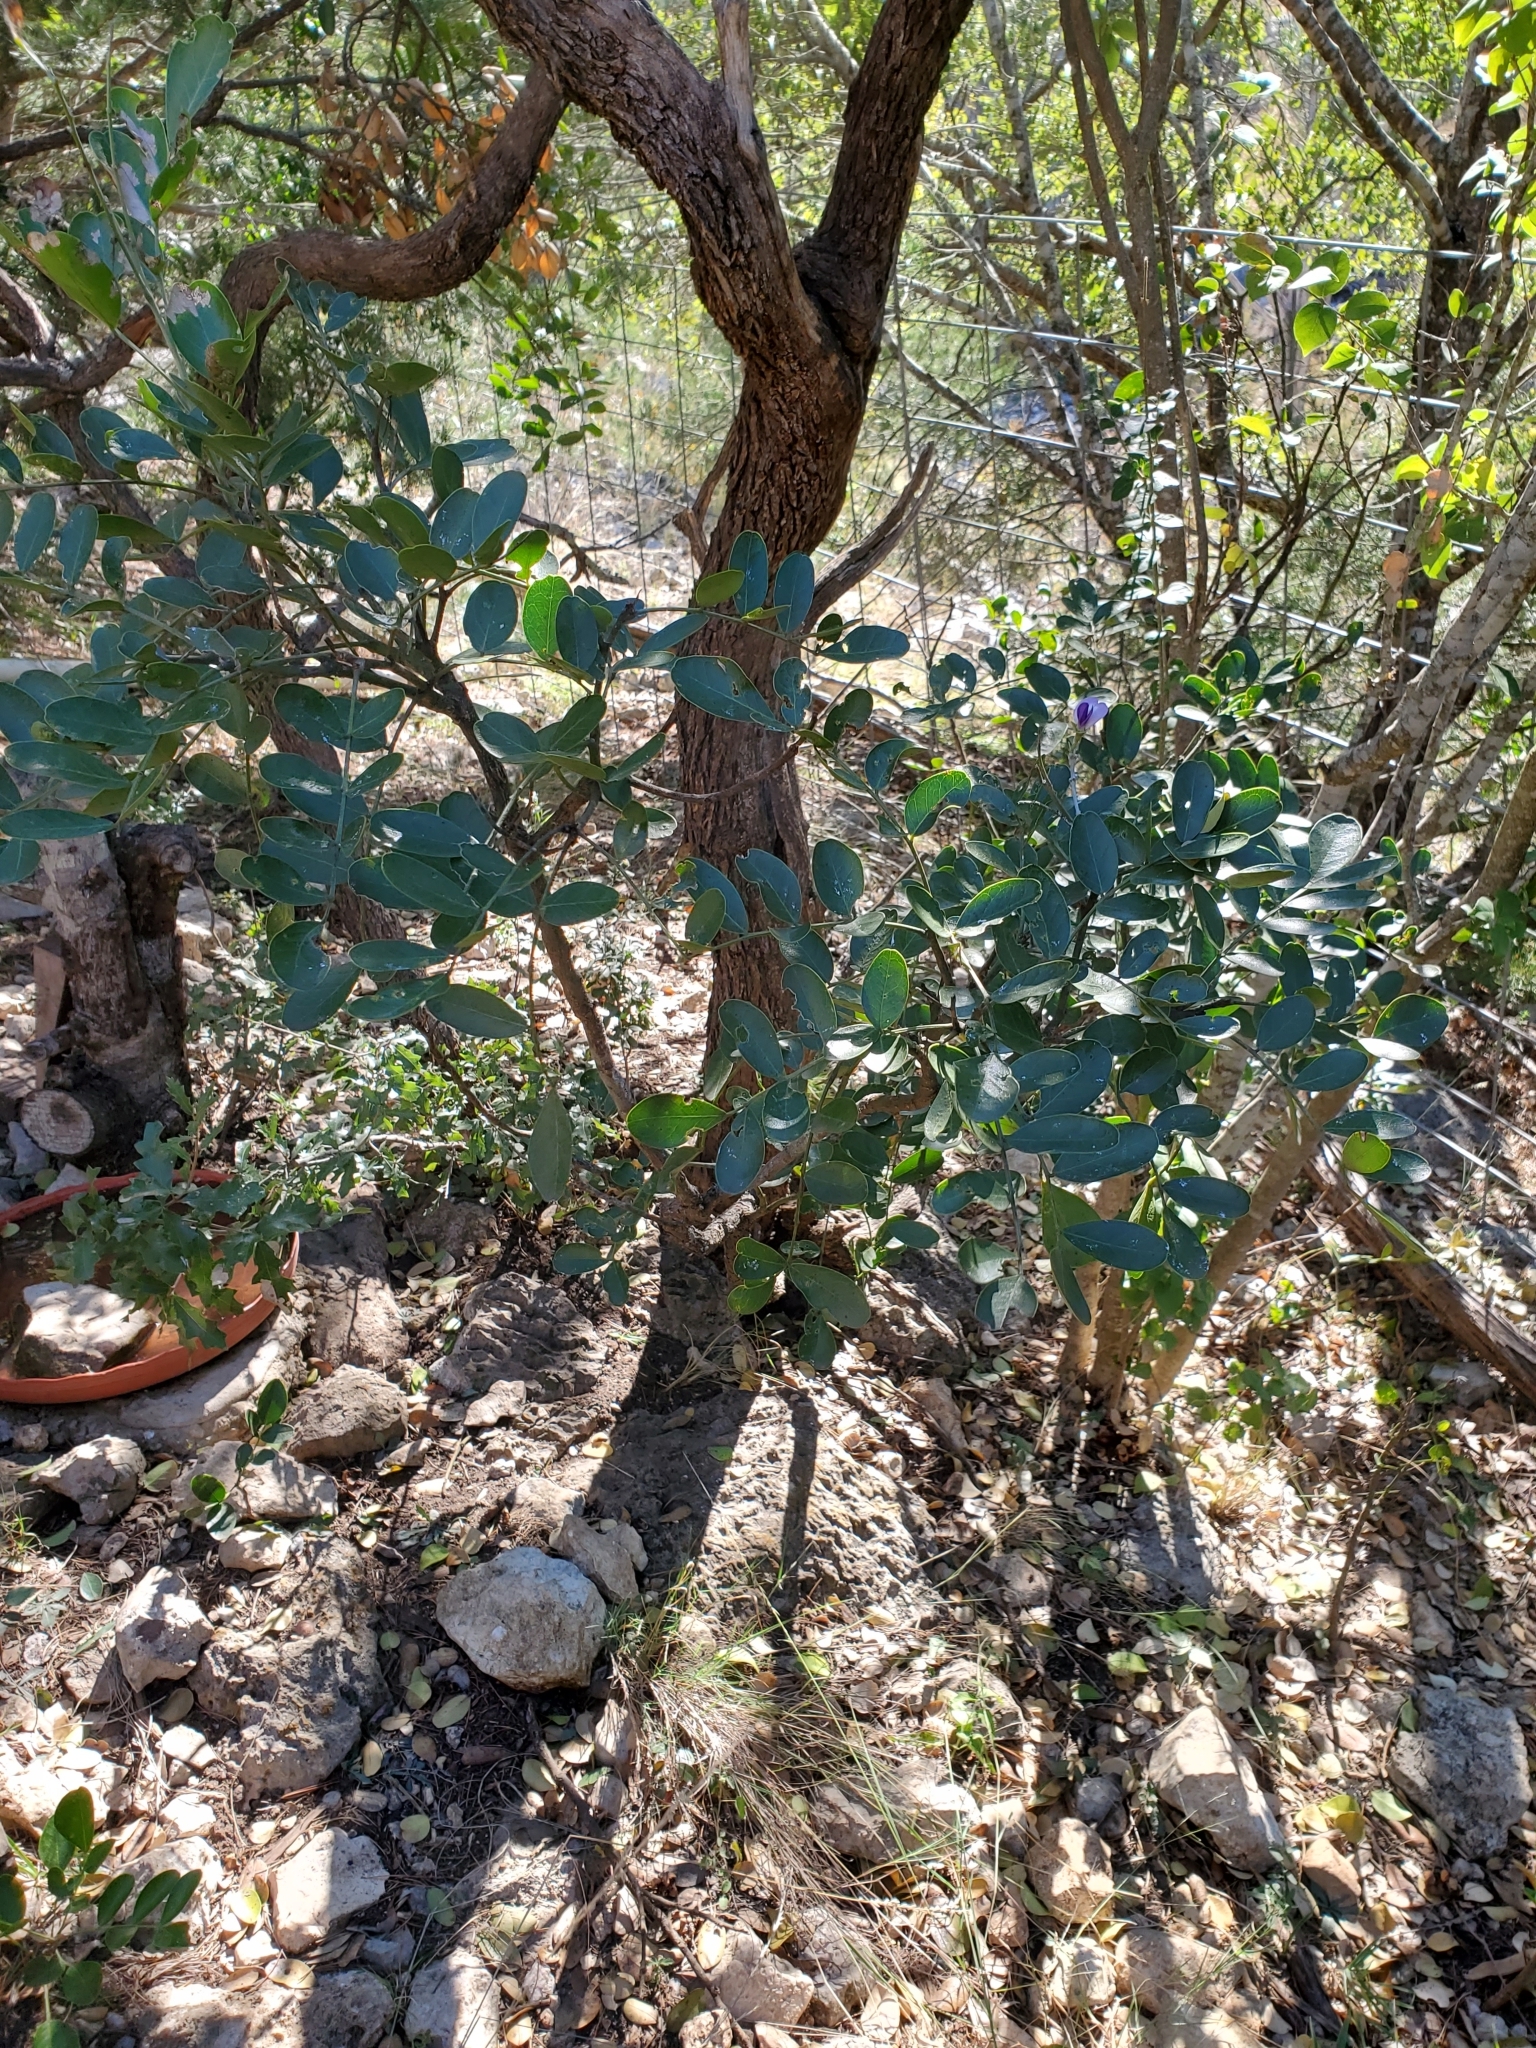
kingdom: Plantae
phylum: Tracheophyta
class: Magnoliopsida
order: Fabales
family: Fabaceae
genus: Dermatophyllum
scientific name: Dermatophyllum secundiflorum
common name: Texas-mountain-laurel
